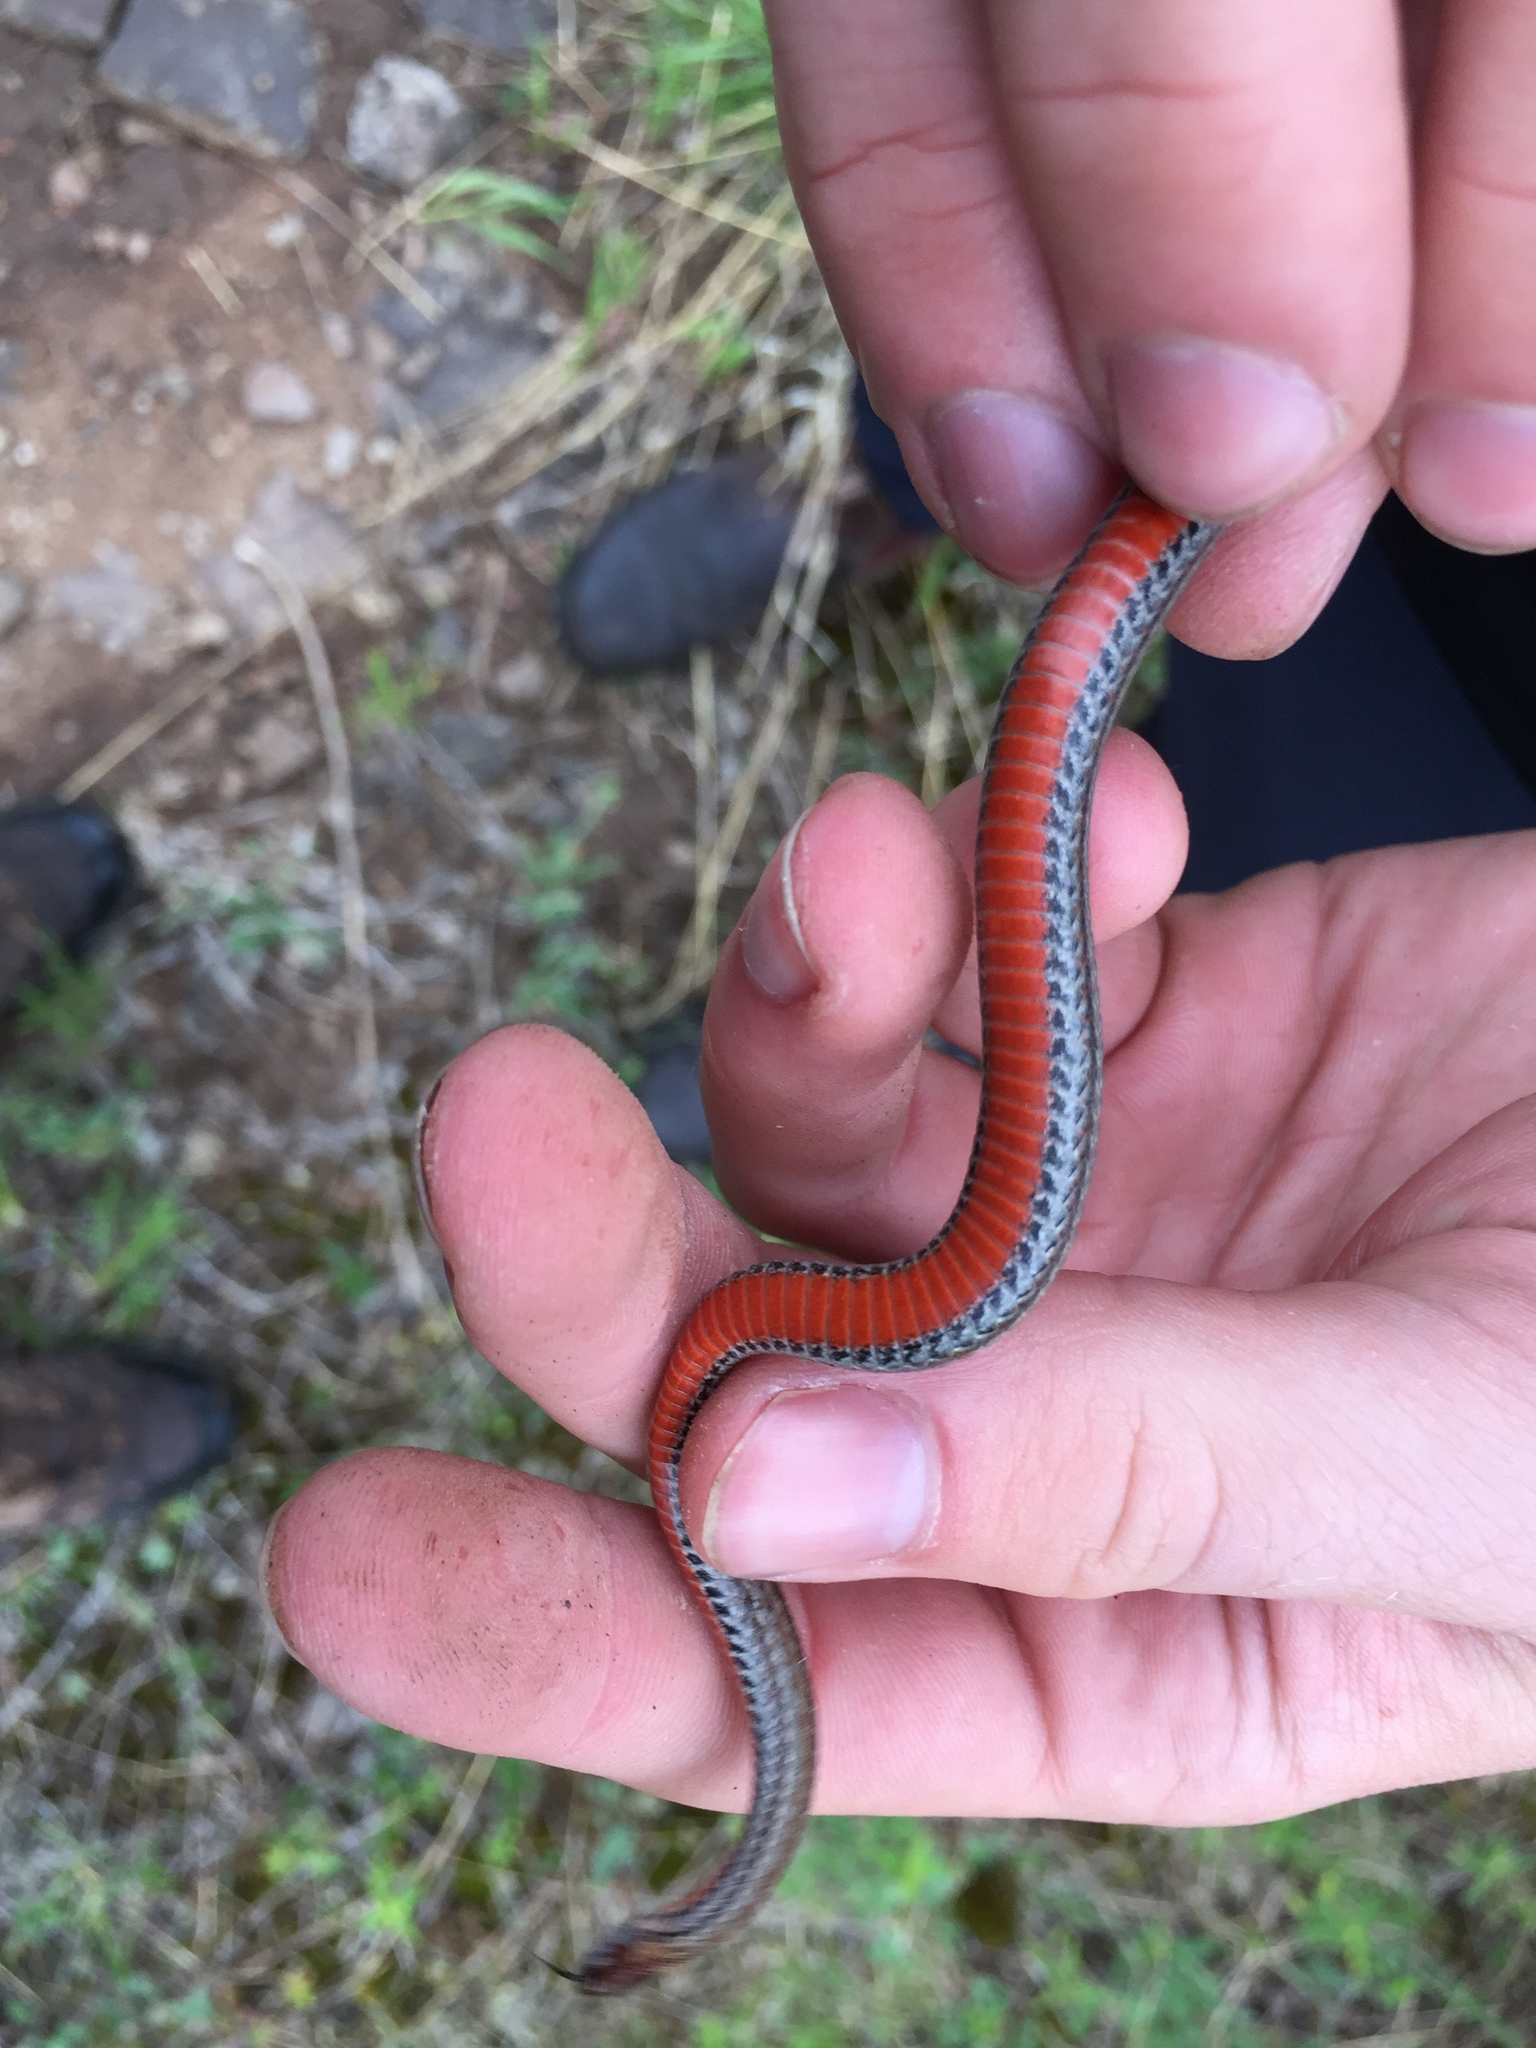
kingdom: Animalia
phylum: Chordata
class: Squamata
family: Colubridae
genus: Storeria
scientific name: Storeria occipitomaculata
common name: Redbelly snake
